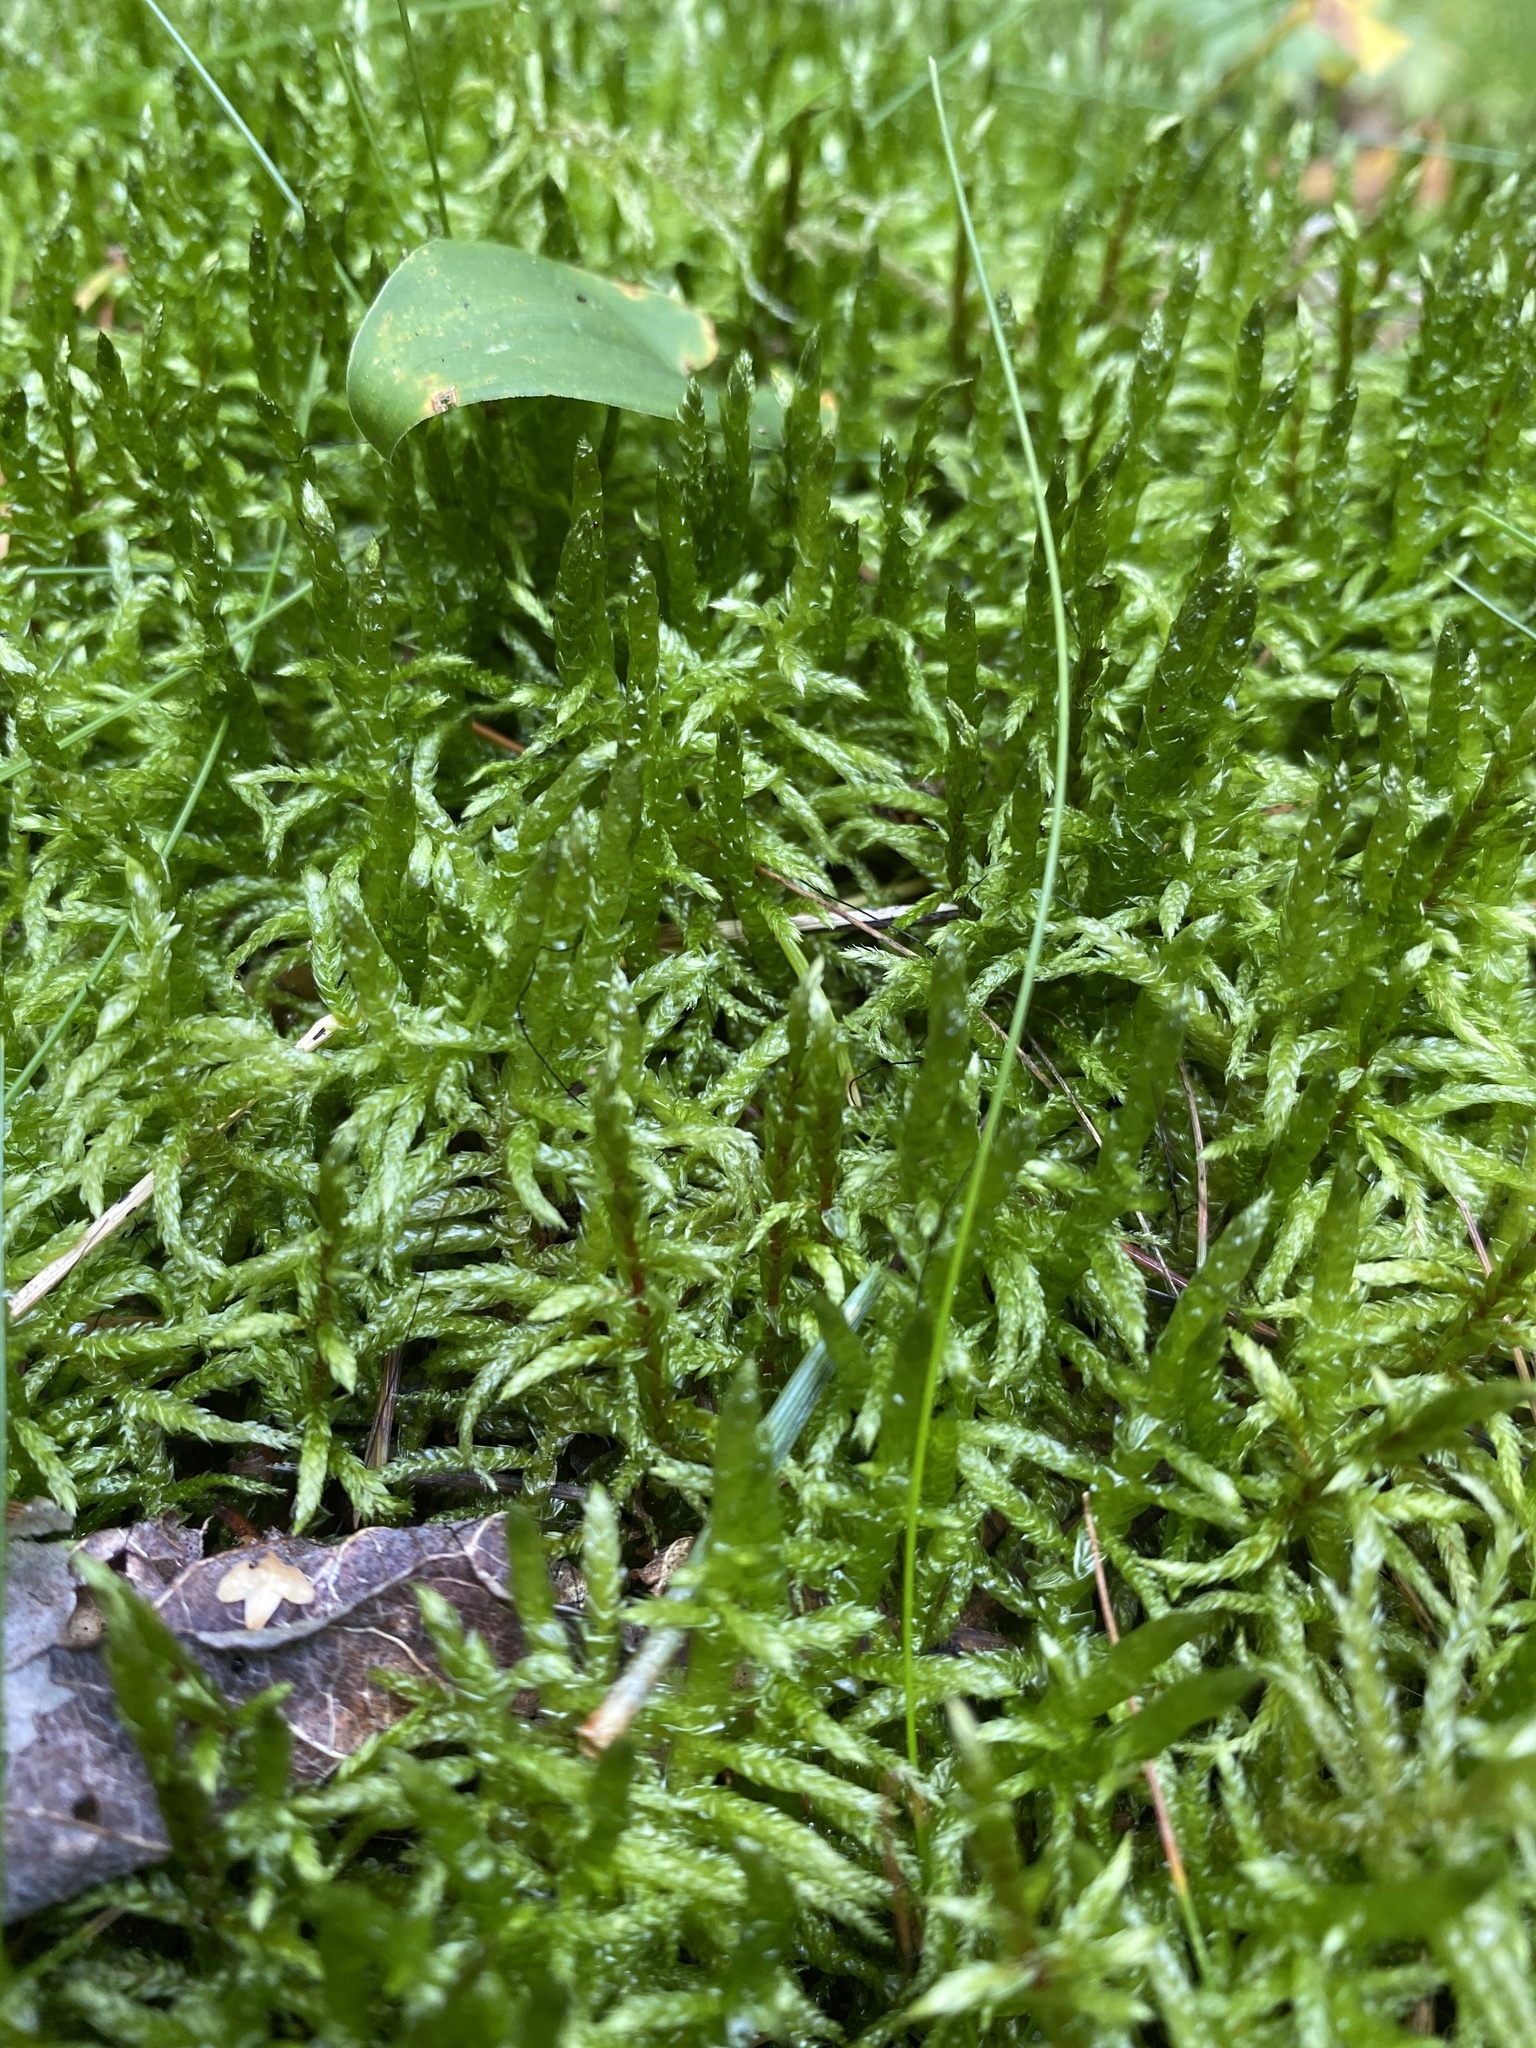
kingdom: Plantae
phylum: Bryophyta
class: Bryopsida
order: Hypnales
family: Hylocomiaceae
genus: Pleurozium
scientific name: Pleurozium schreberi
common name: Red-stemmed feather moss
